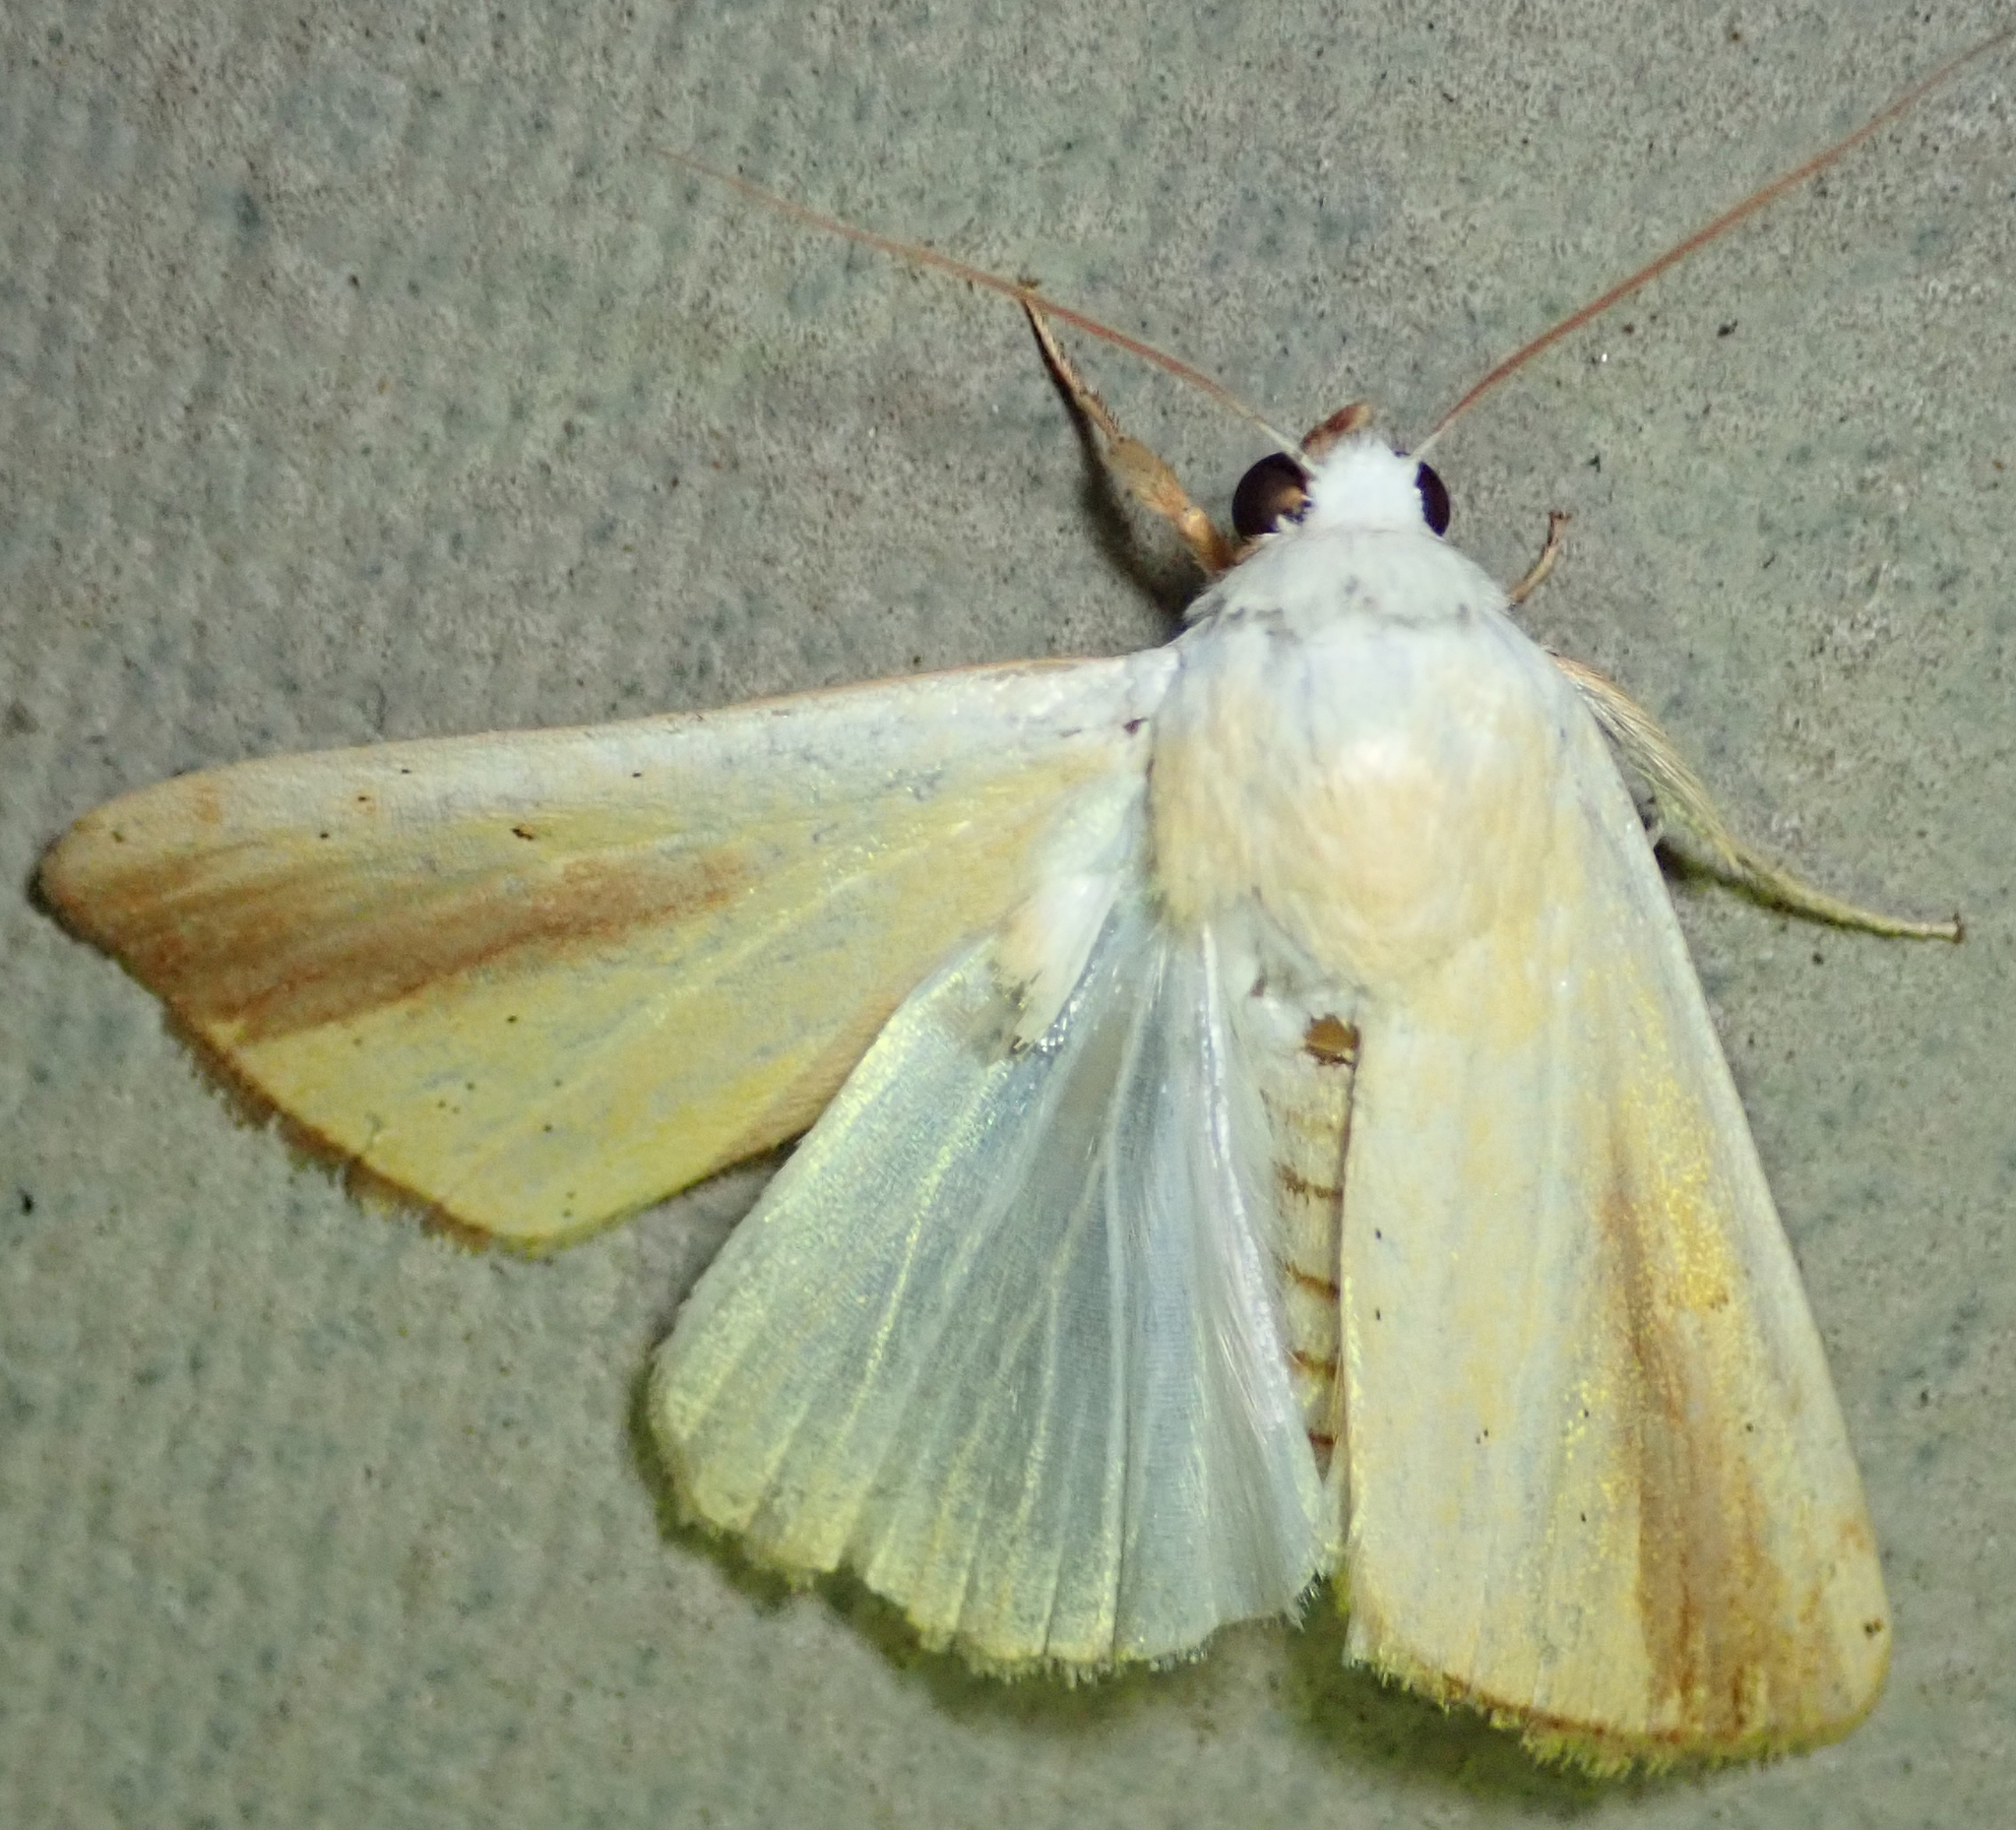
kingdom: Animalia
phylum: Arthropoda
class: Insecta
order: Lepidoptera
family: Nolidae
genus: Pardoxia
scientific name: Pardoxia graellsii
